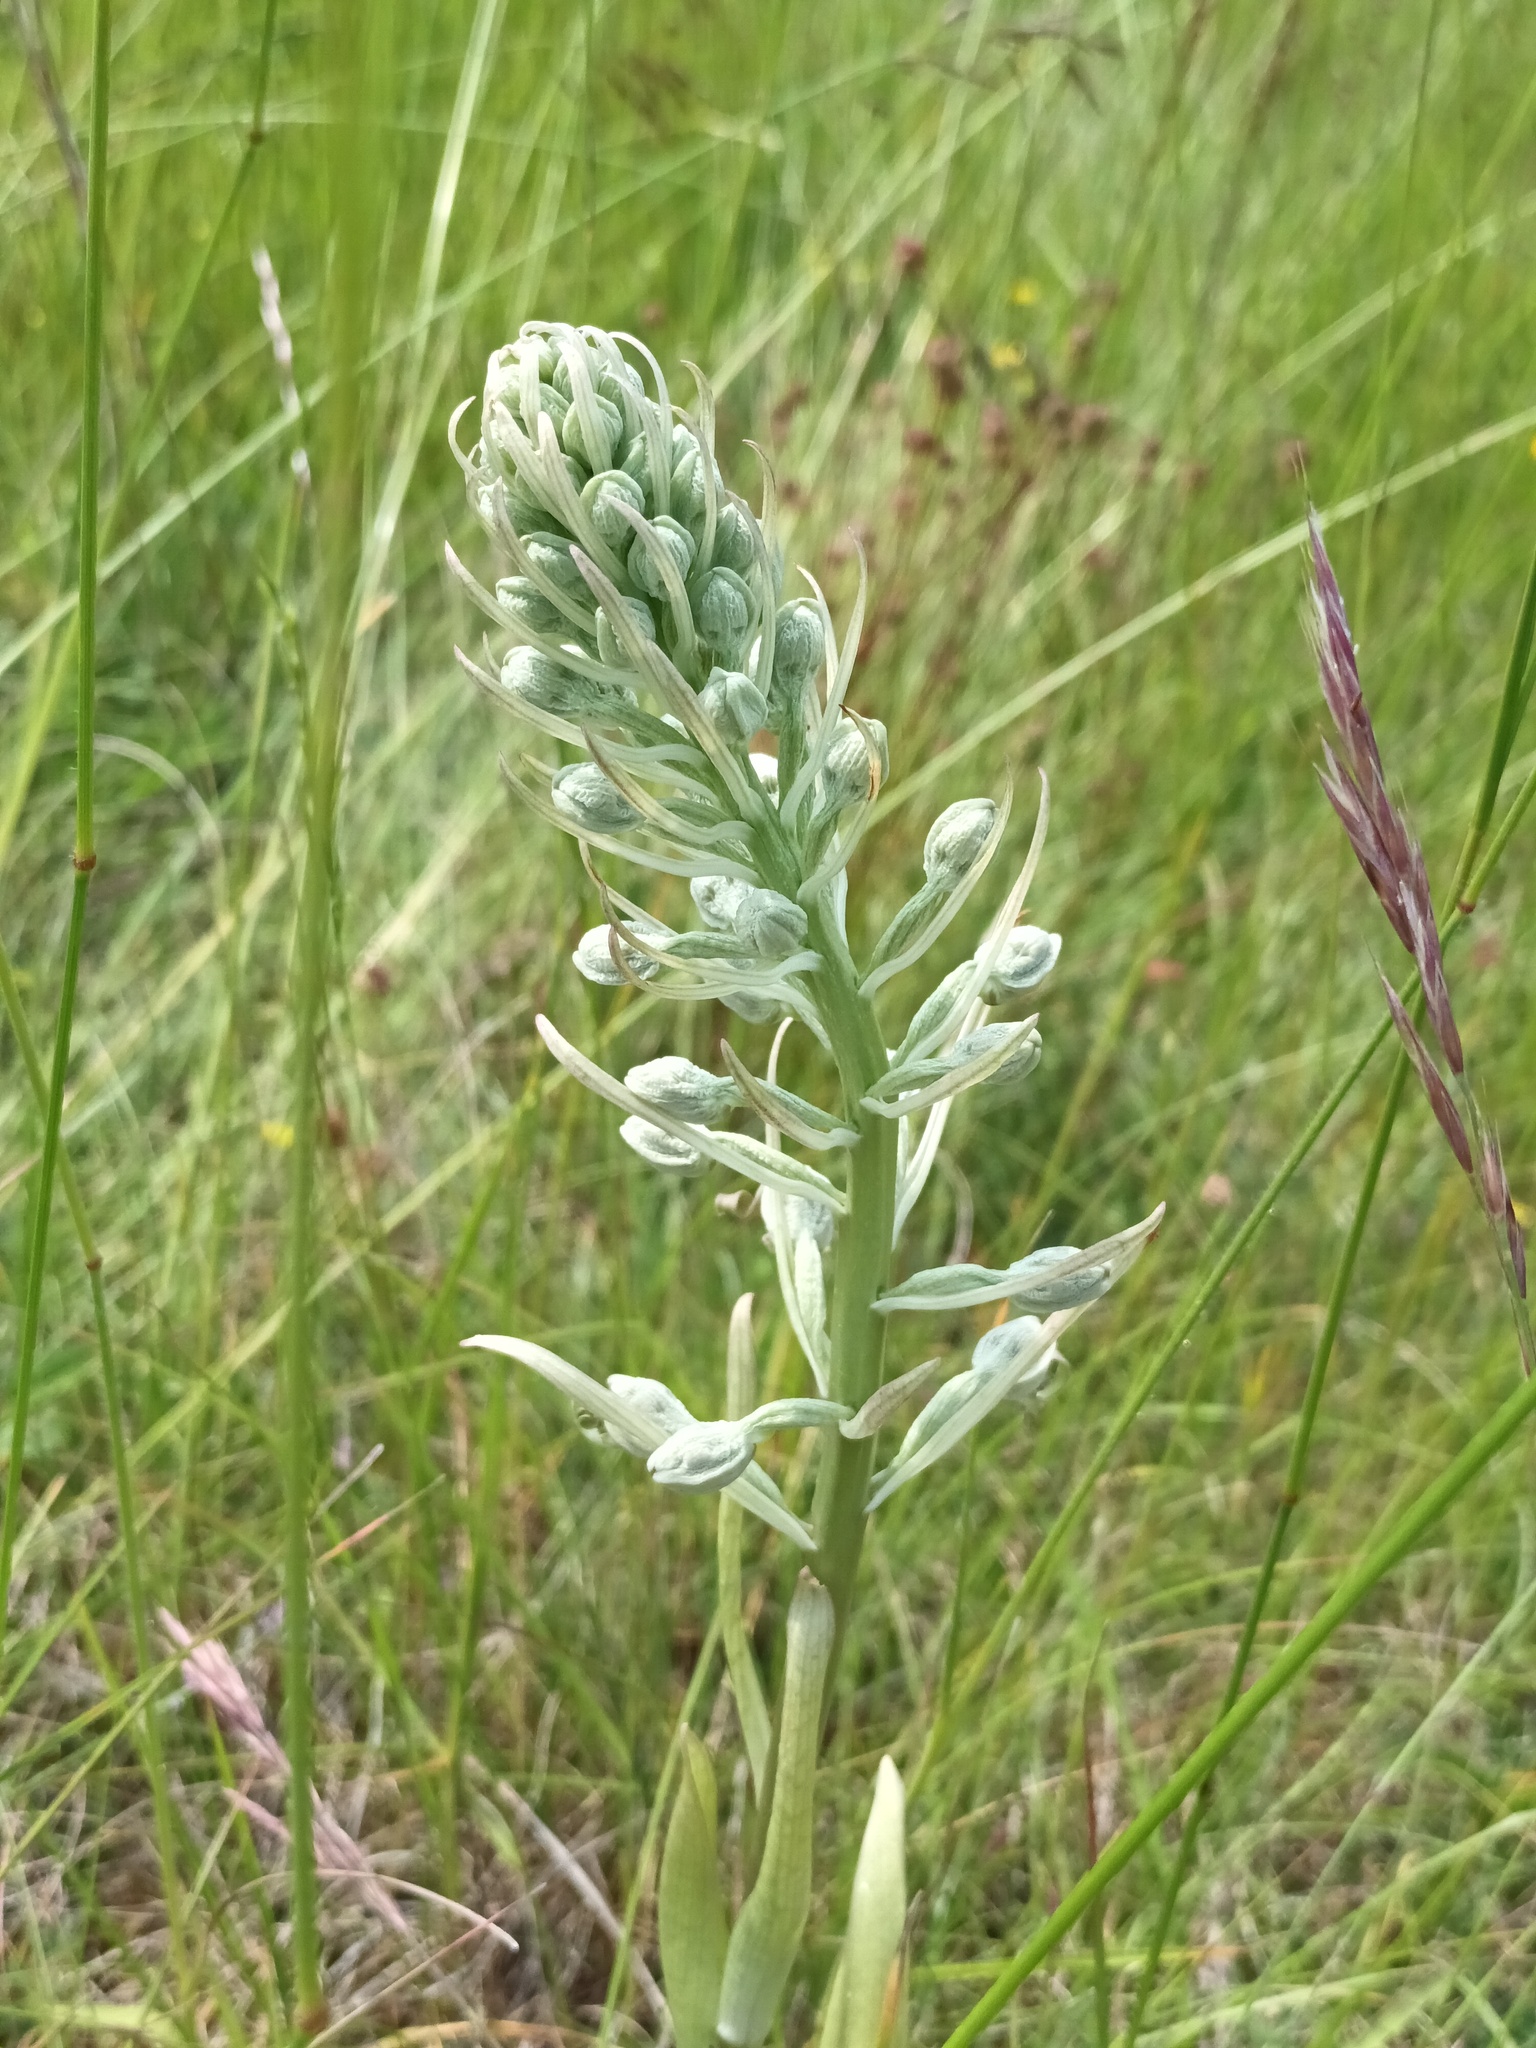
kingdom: Plantae
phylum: Tracheophyta
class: Liliopsida
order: Asparagales
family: Orchidaceae
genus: Himantoglossum
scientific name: Himantoglossum hircinum
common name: Lizard orchid
